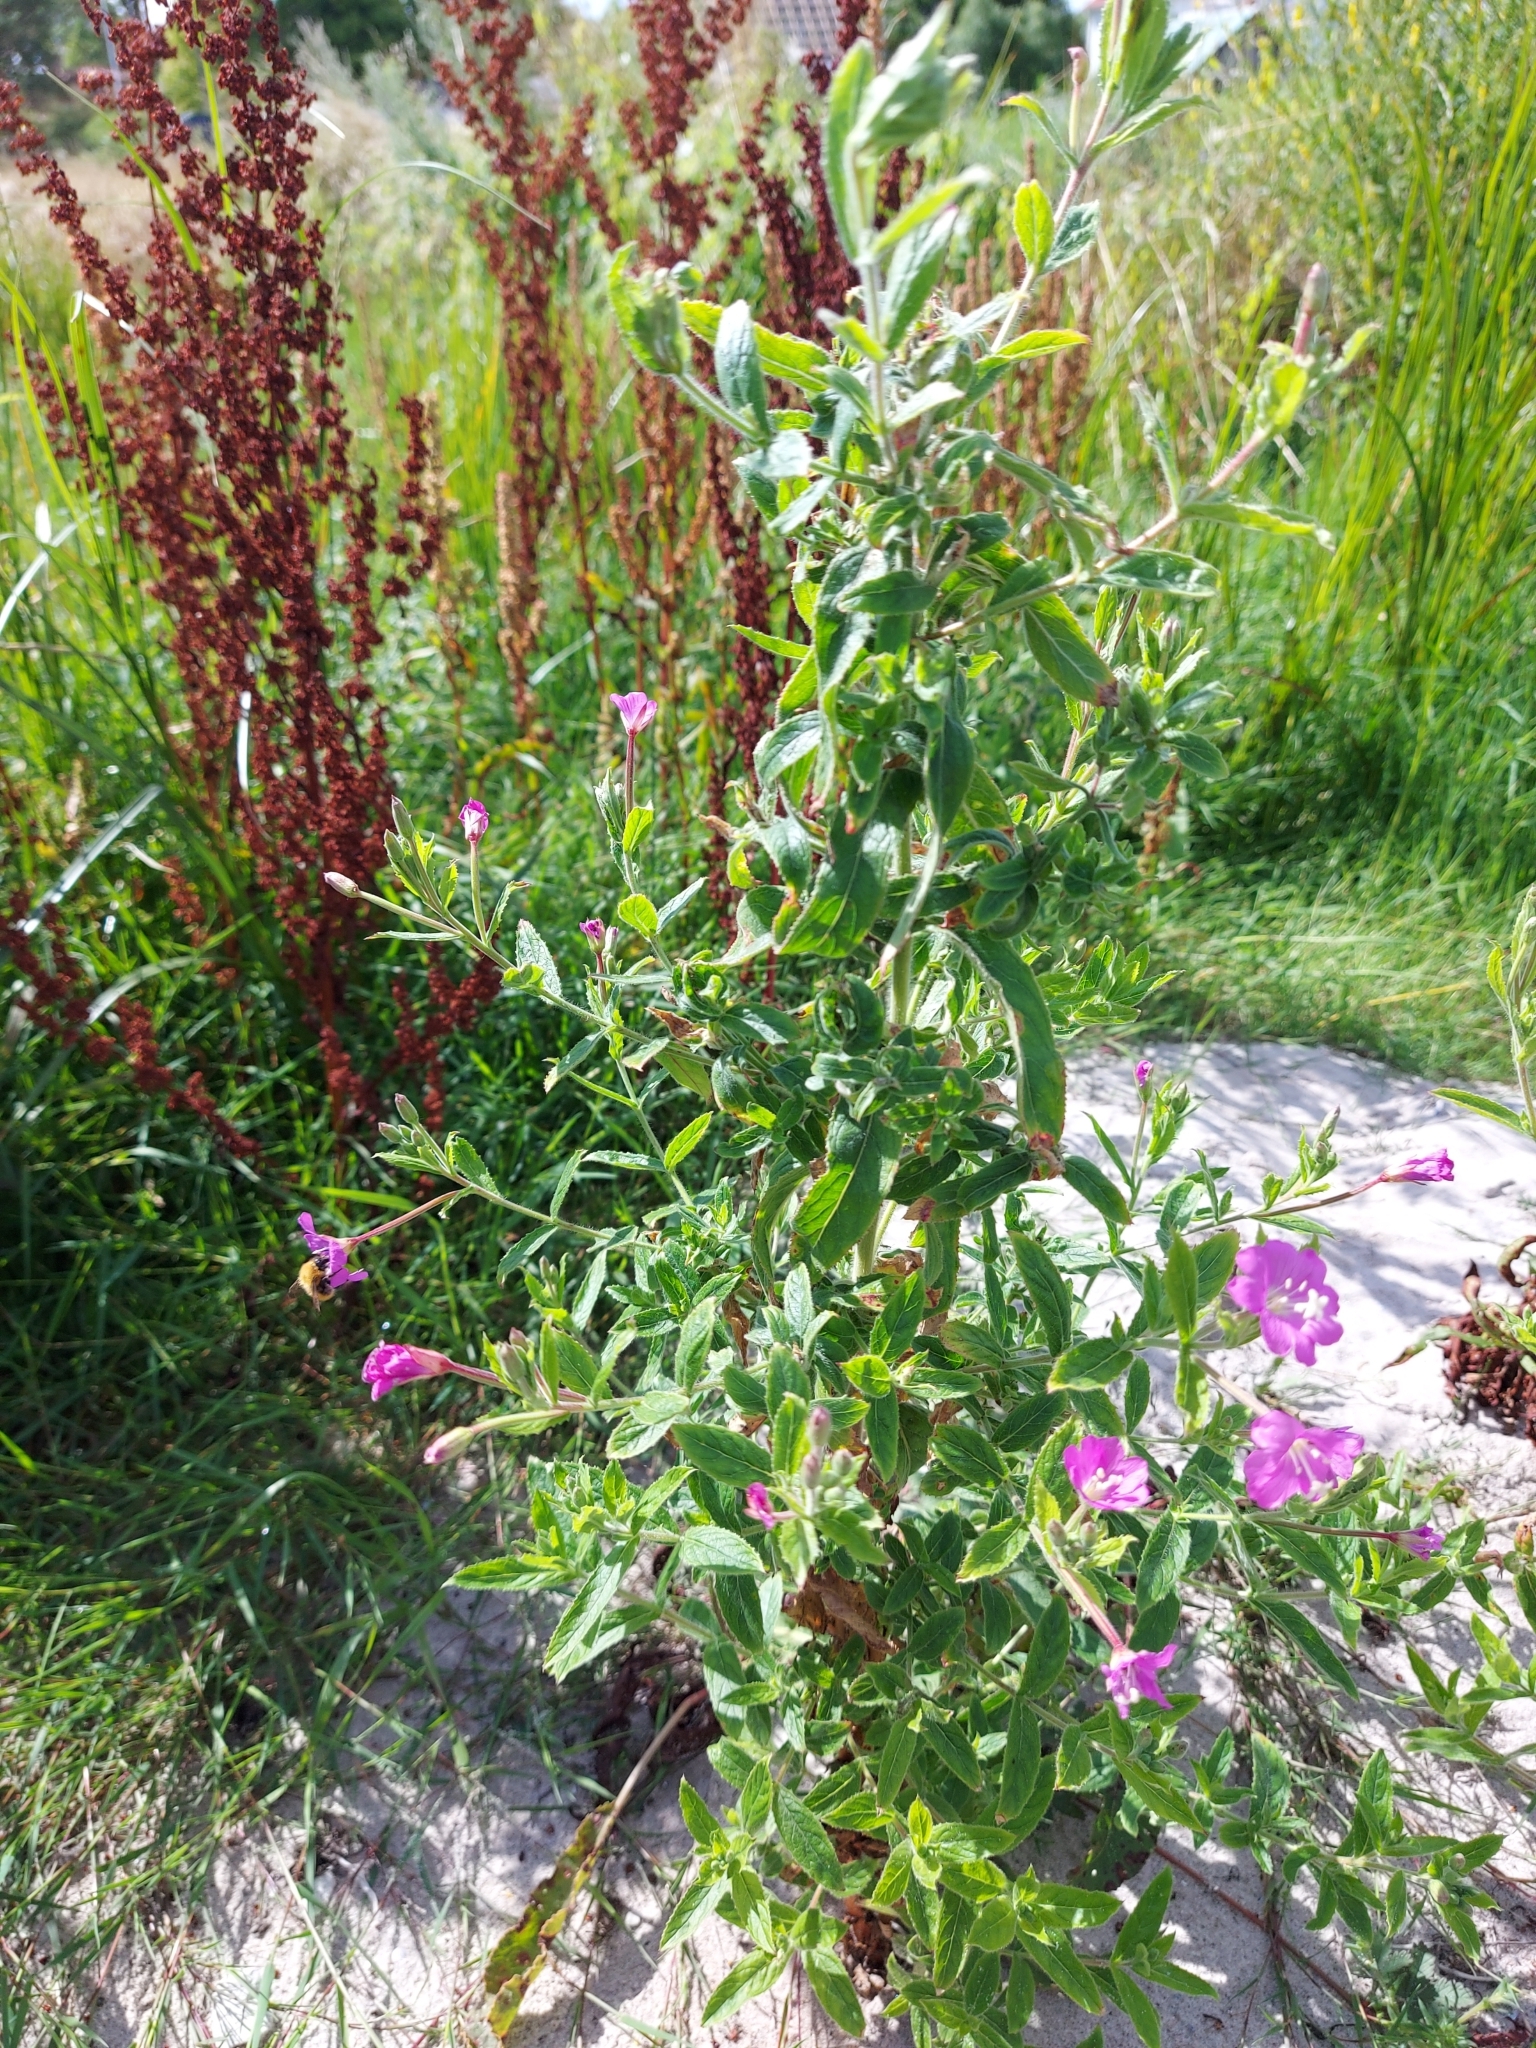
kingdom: Plantae
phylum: Tracheophyta
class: Magnoliopsida
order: Myrtales
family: Onagraceae
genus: Epilobium
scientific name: Epilobium hirsutum
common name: Great willowherb
